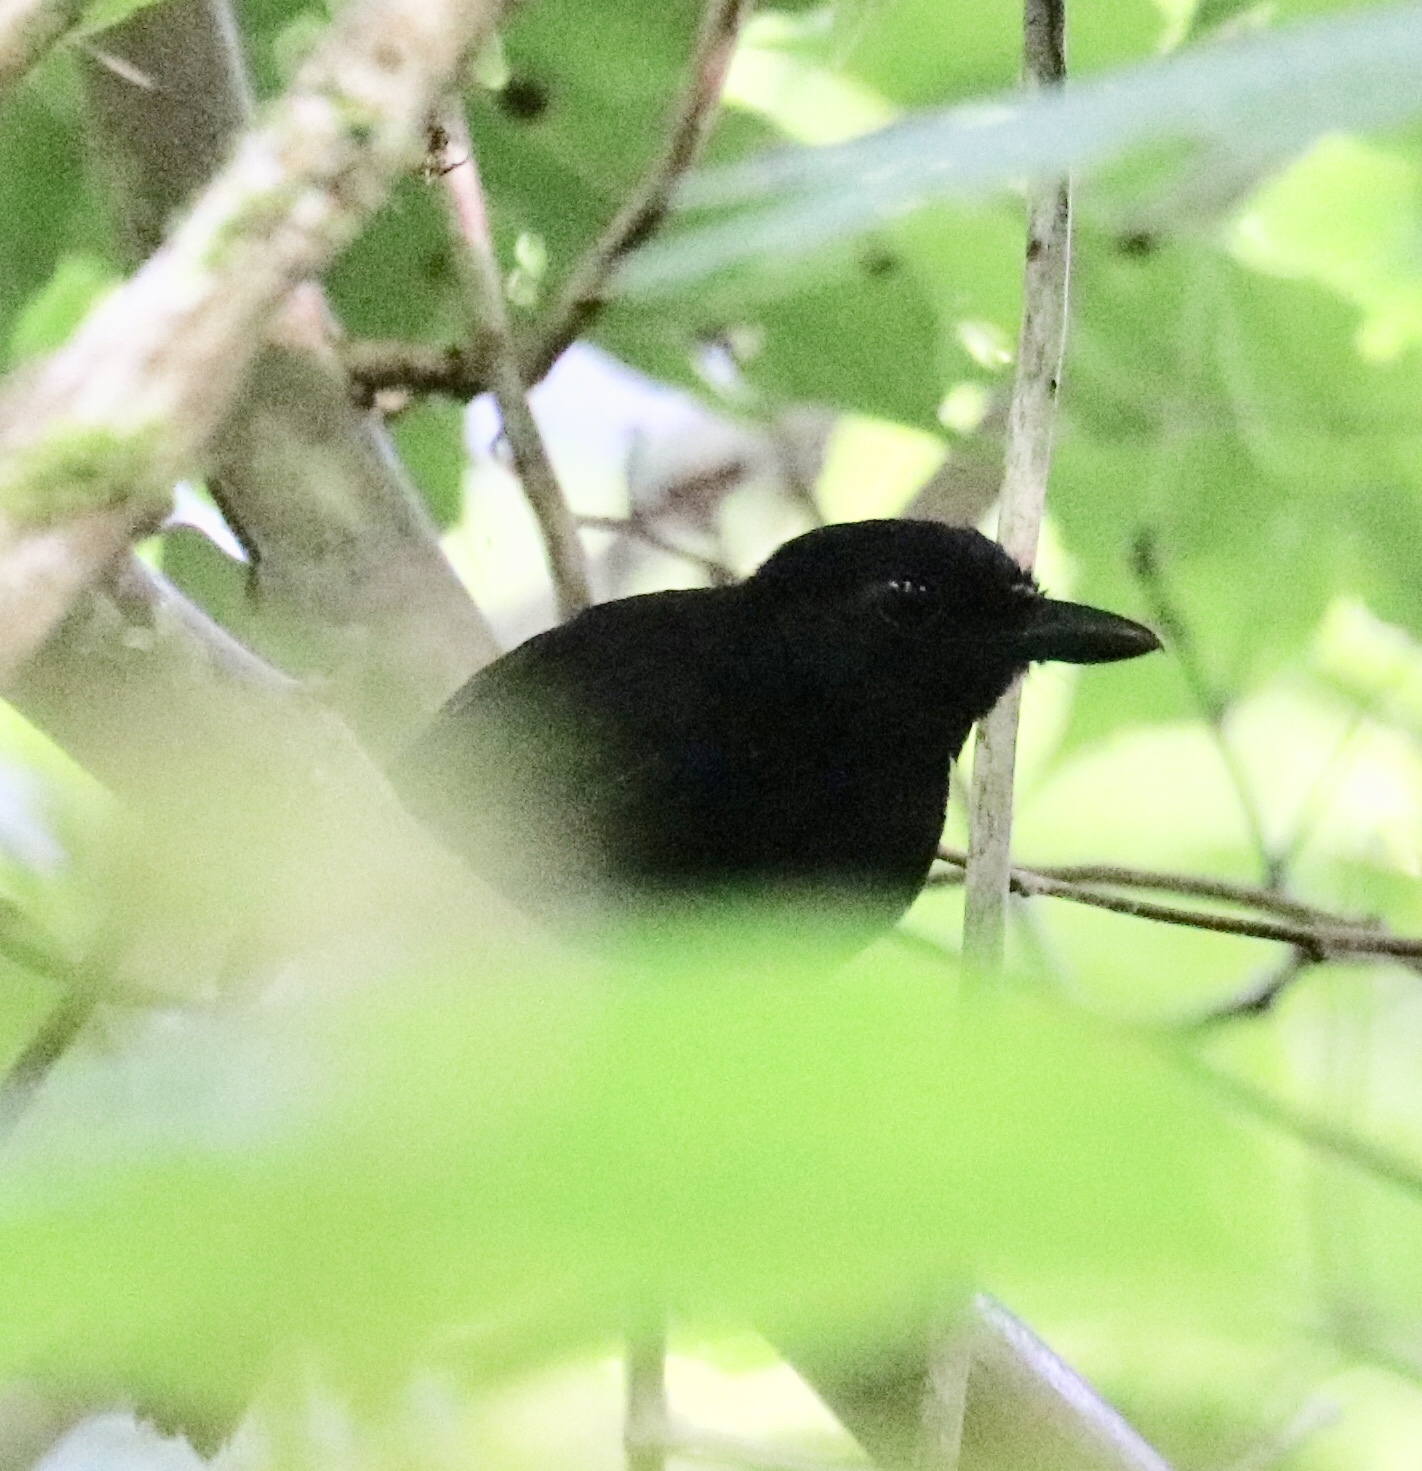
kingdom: Animalia
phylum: Chordata
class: Aves
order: Passeriformes
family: Thamnophilidae
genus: Cercomacra
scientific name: Cercomacra nigricans
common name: Jet antbird
